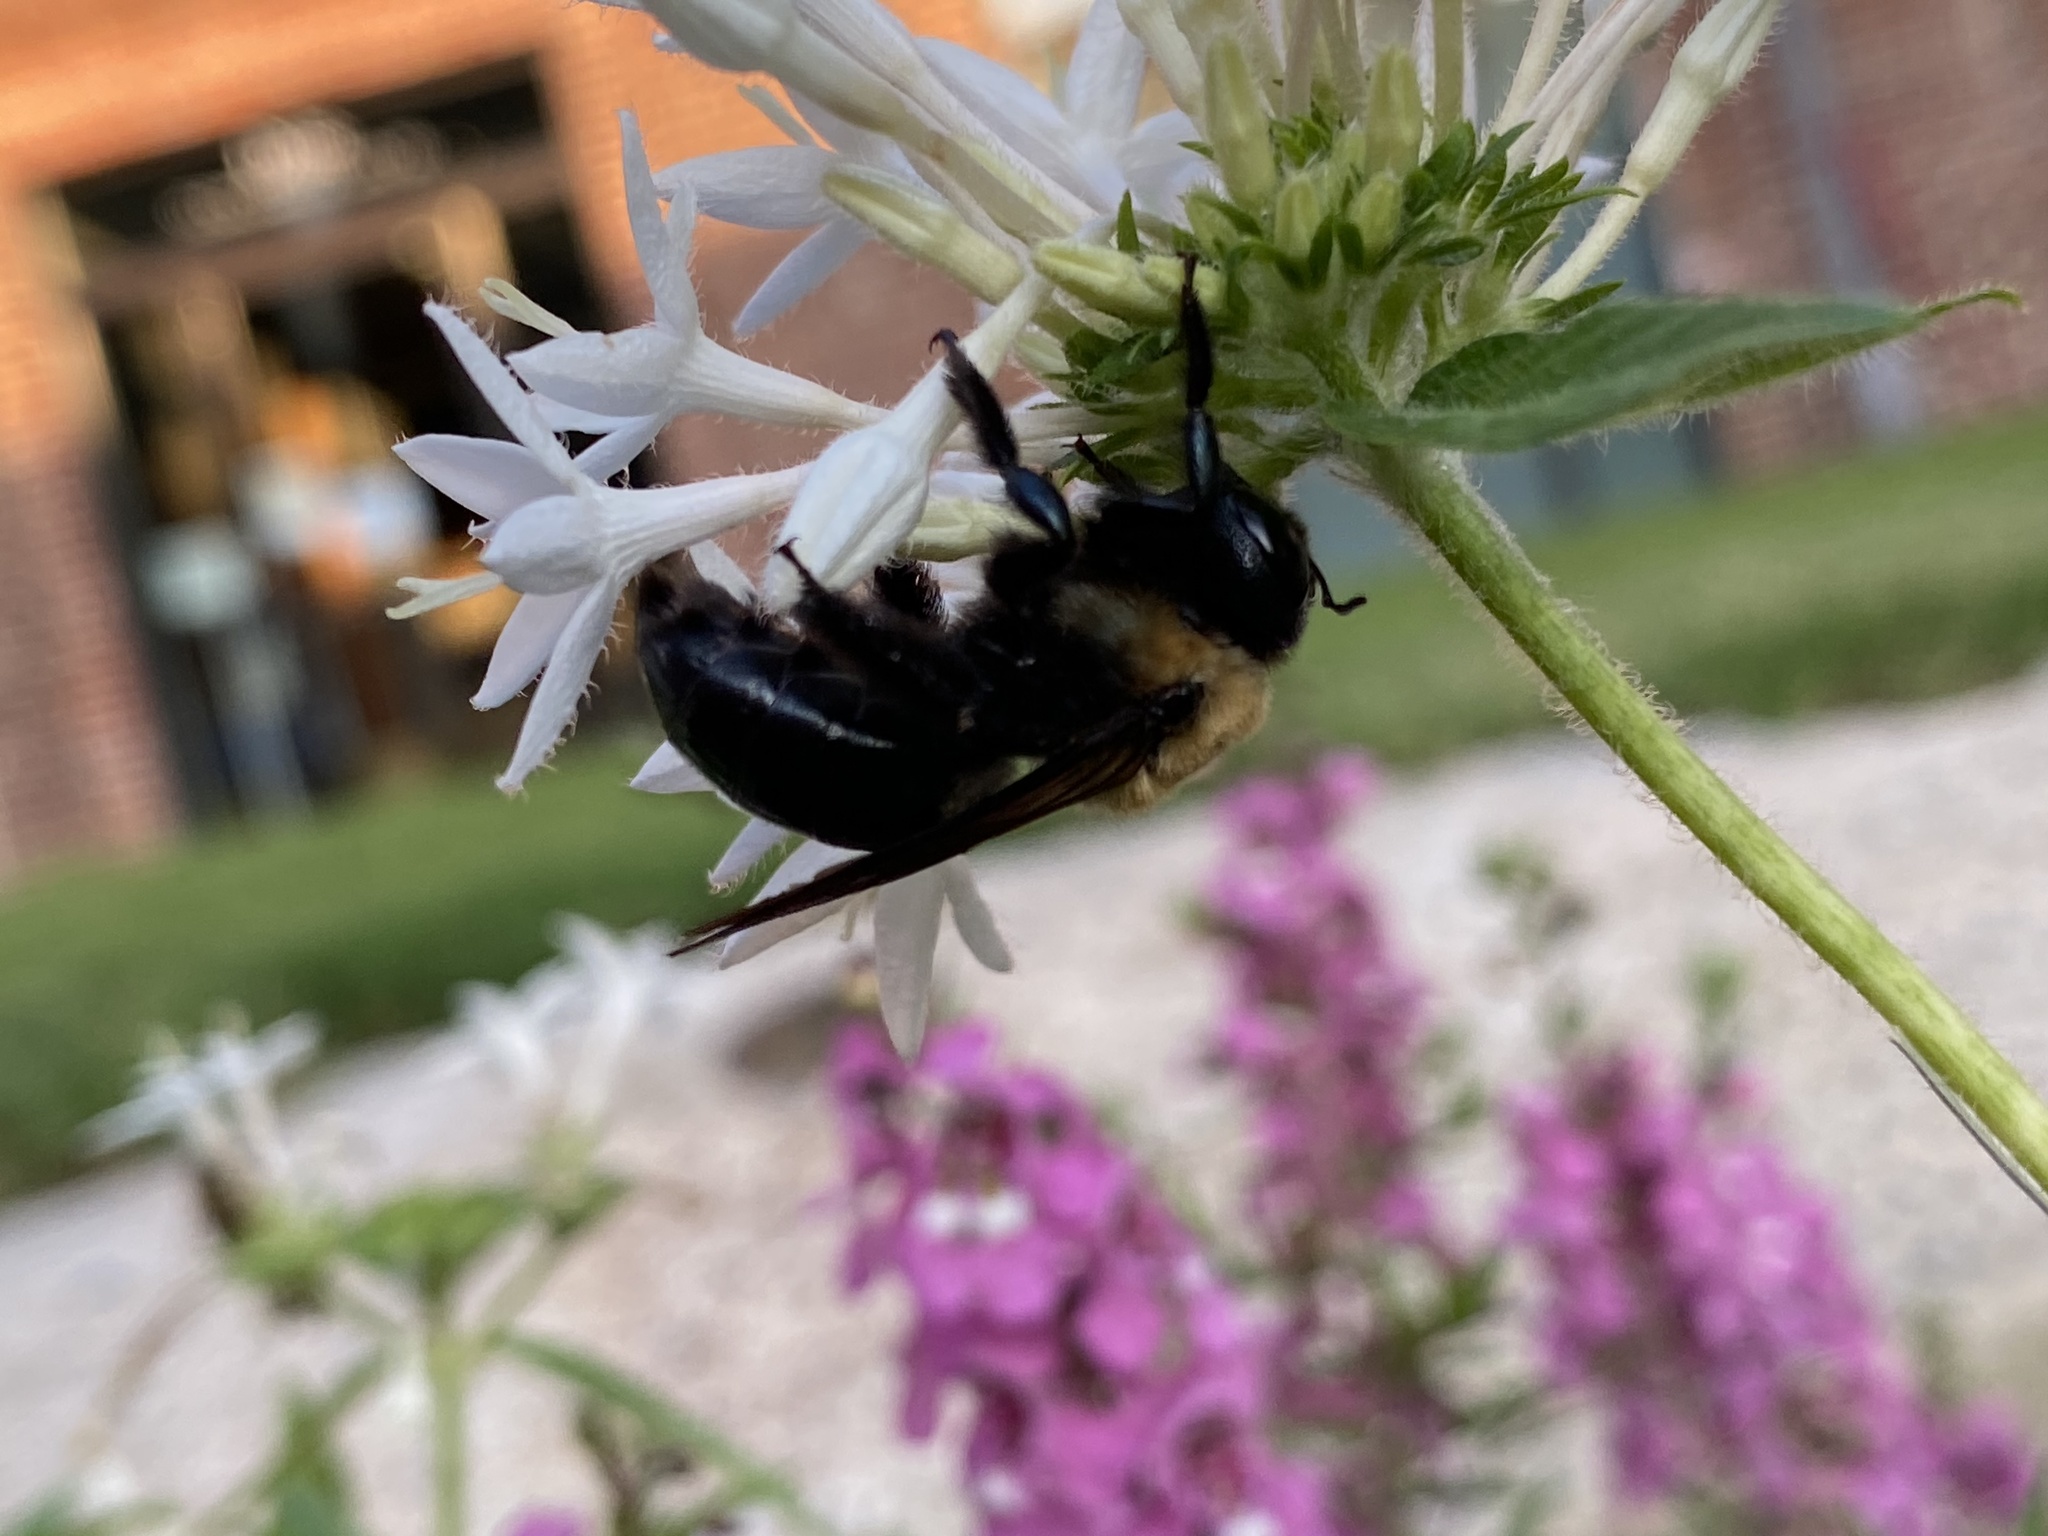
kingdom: Animalia
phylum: Arthropoda
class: Insecta
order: Hymenoptera
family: Apidae
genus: Xylocopa
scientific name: Xylocopa virginica
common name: Carpenter bee
